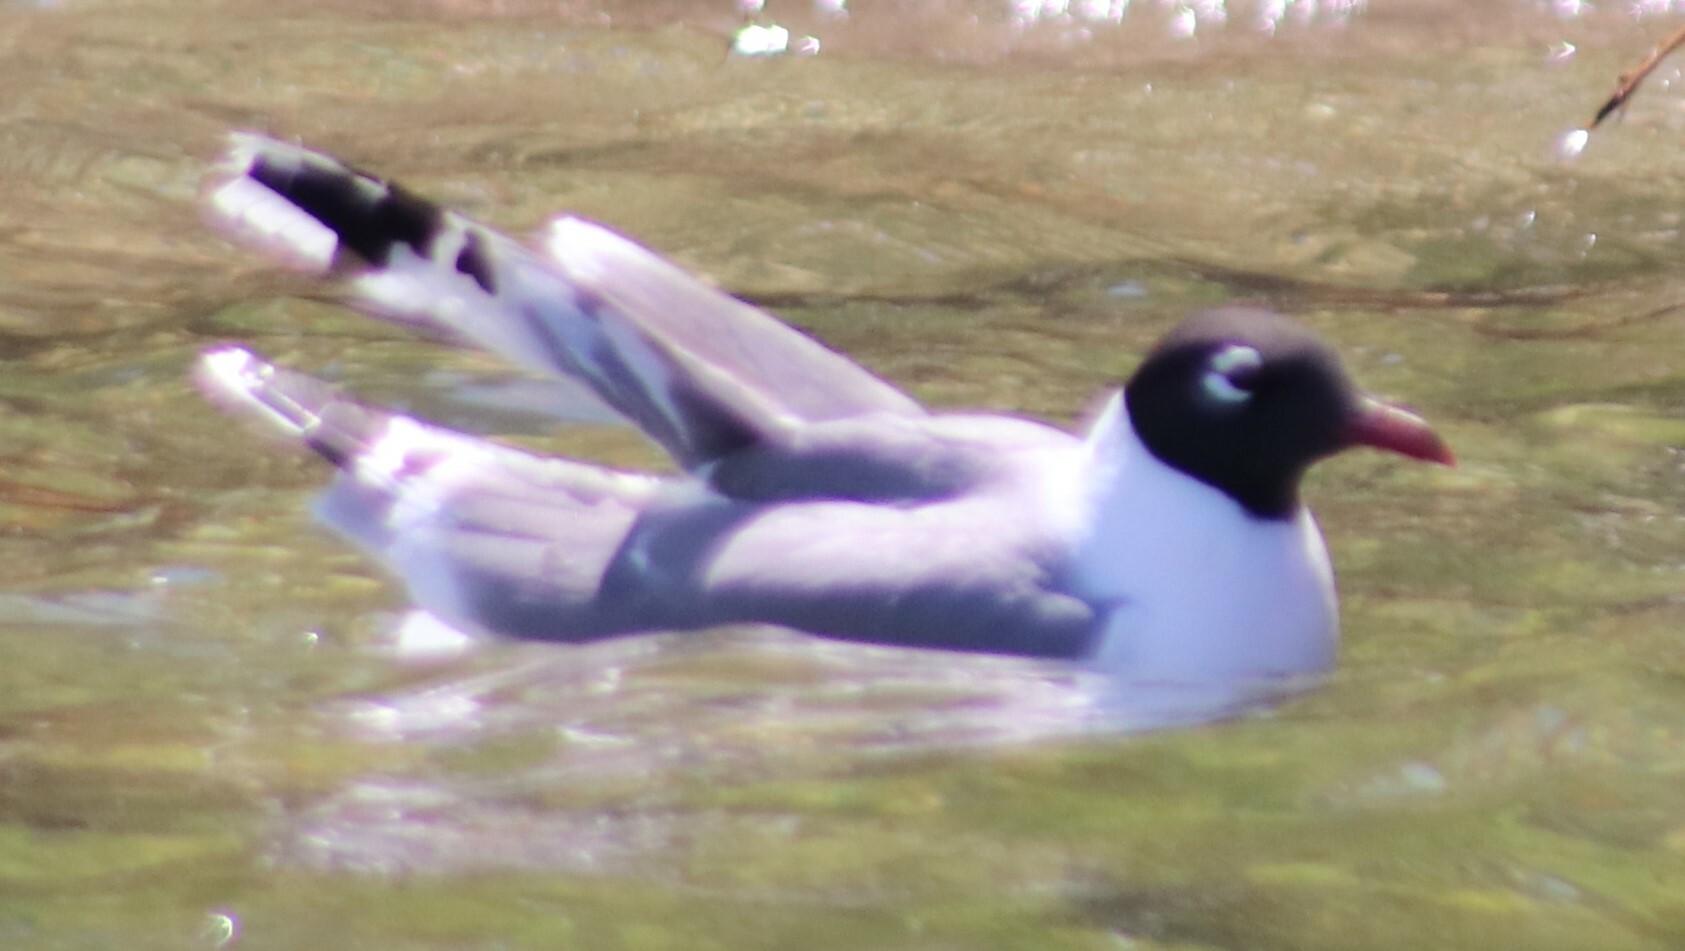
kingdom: Animalia
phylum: Chordata
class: Aves
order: Charadriiformes
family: Laridae
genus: Leucophaeus
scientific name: Leucophaeus pipixcan
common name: Franklin's gull
